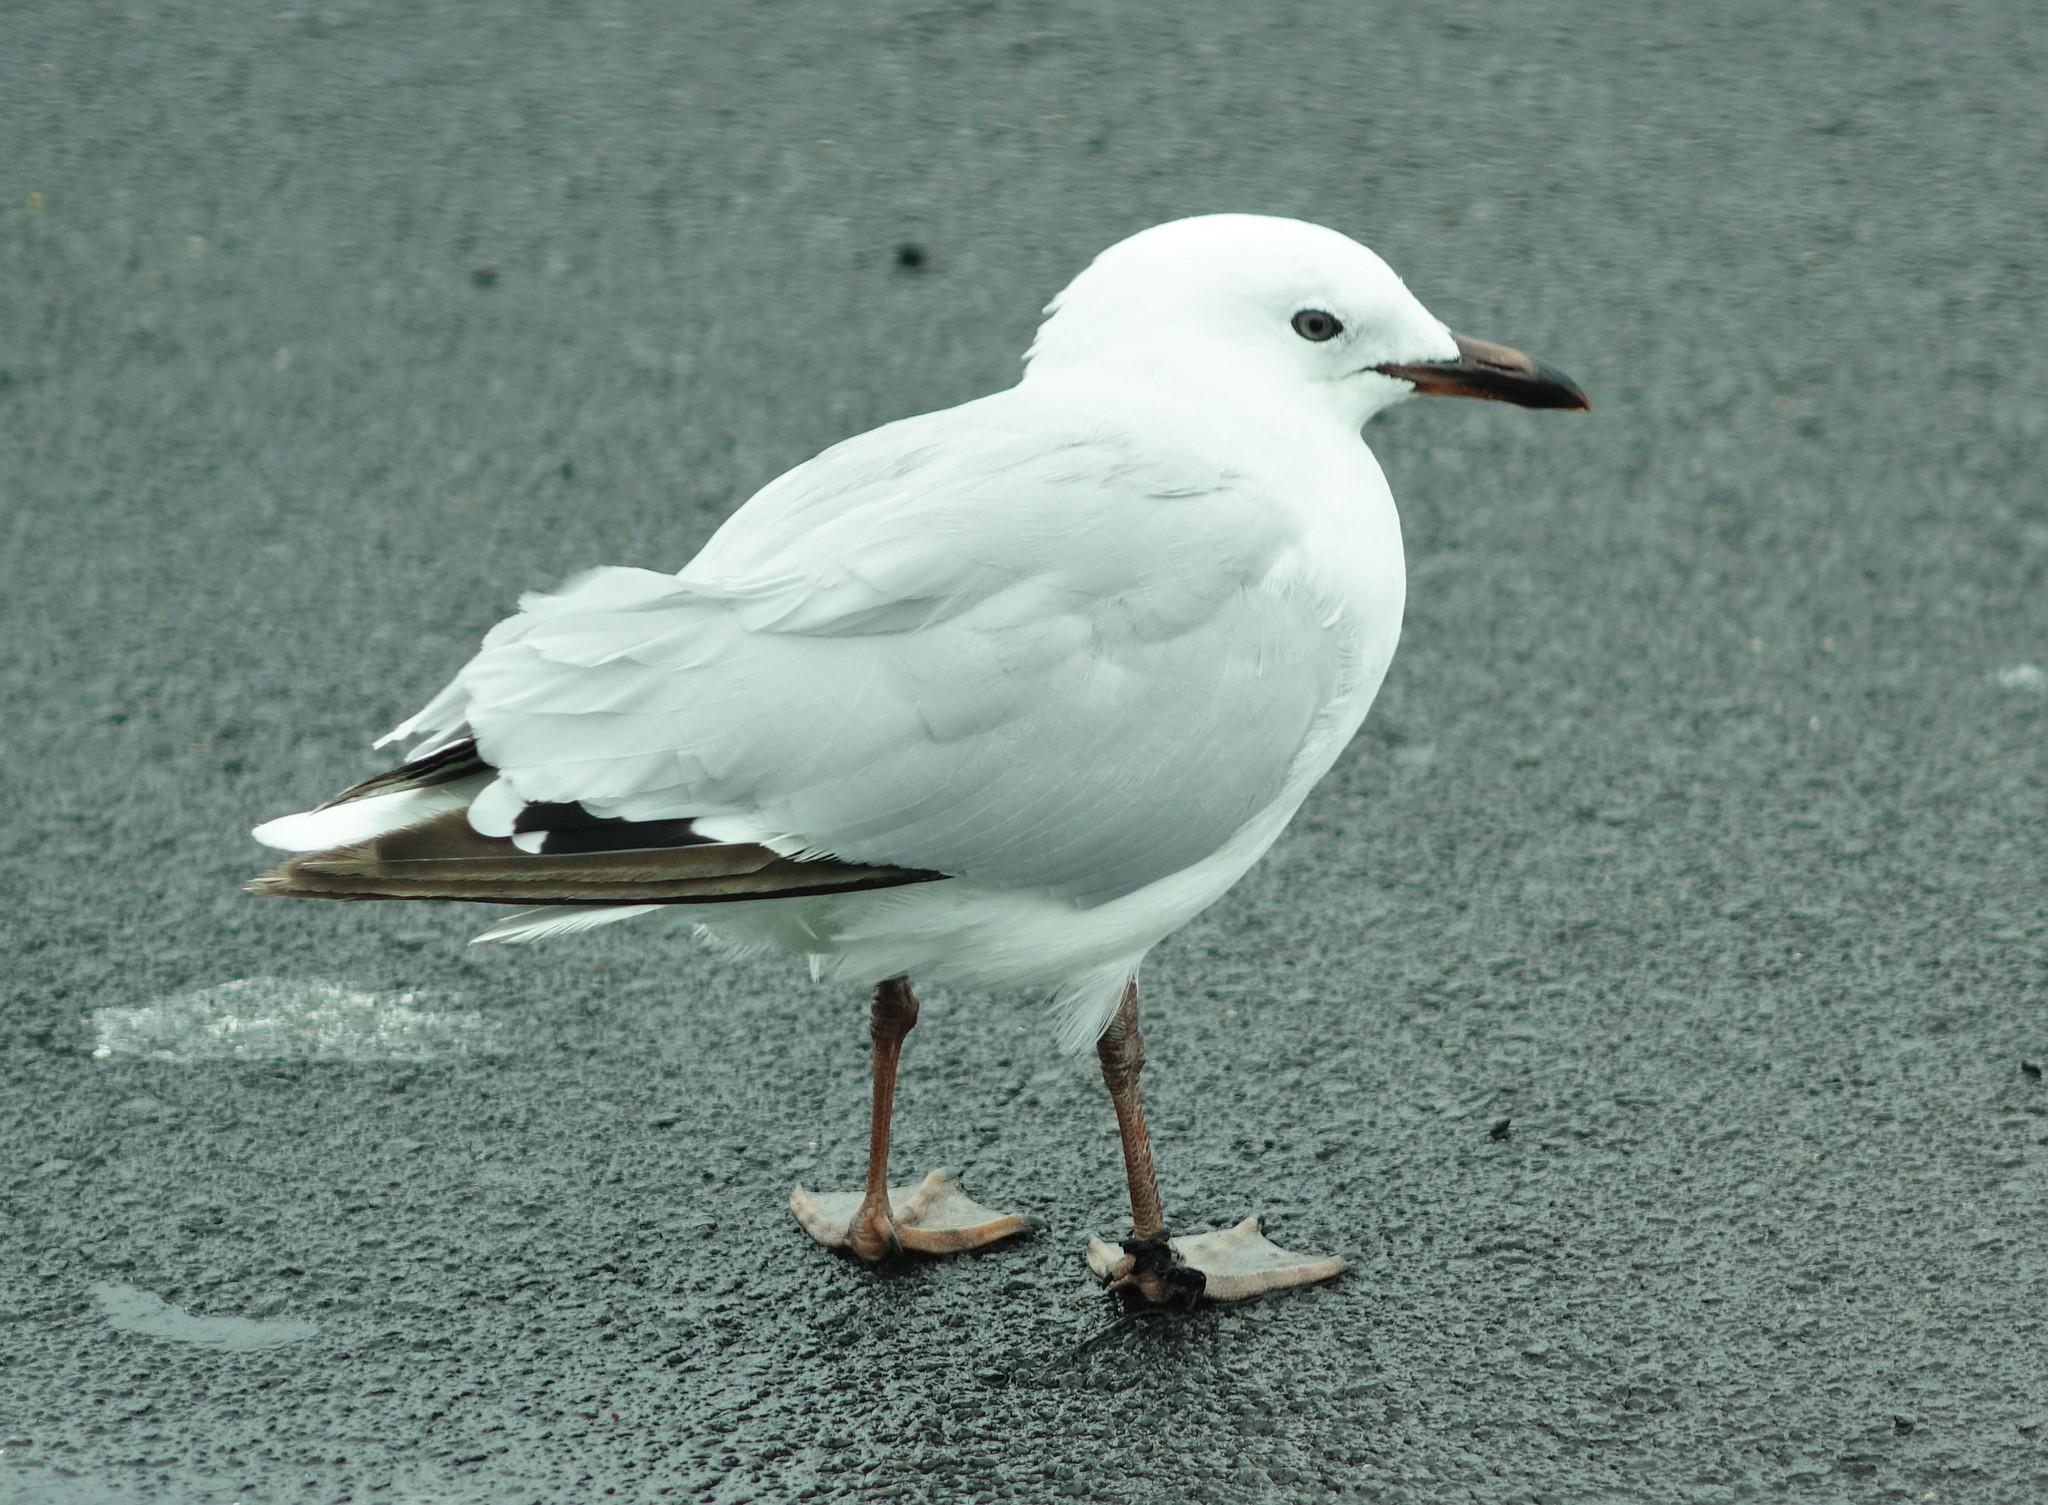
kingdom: Animalia
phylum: Chordata
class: Aves
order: Charadriiformes
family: Laridae
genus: Chroicocephalus
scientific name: Chroicocephalus novaehollandiae
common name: Silver gull
